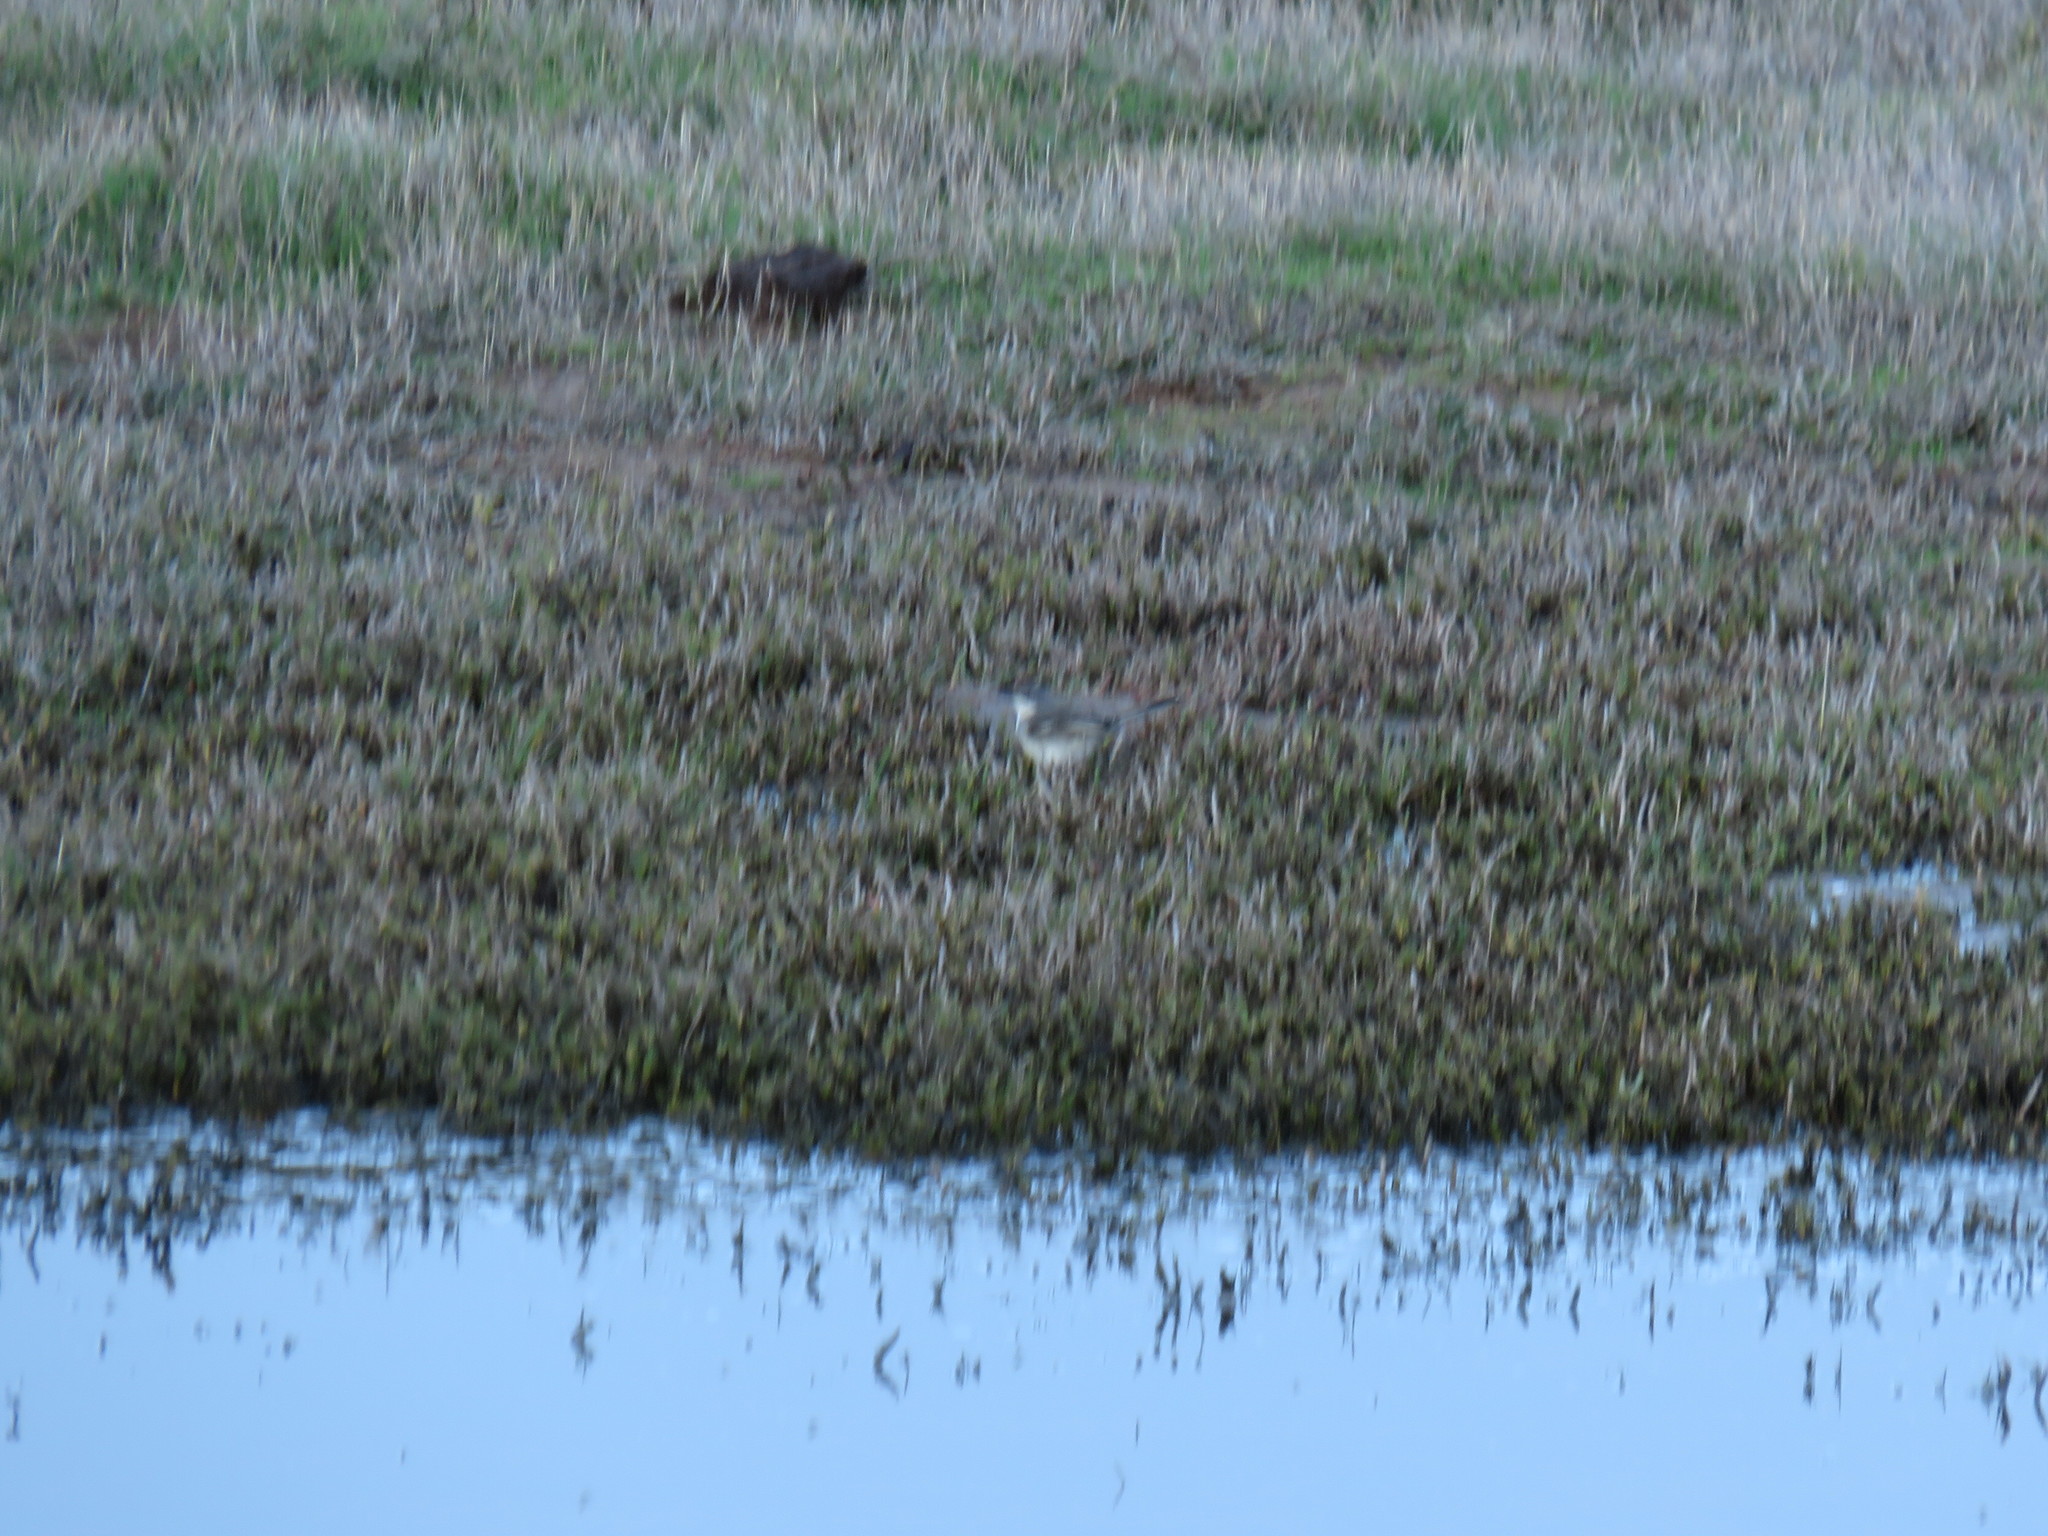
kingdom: Animalia
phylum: Chordata
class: Aves
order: Passeriformes
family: Motacillidae
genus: Motacilla
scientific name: Motacilla capensis
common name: Cape wagtail
